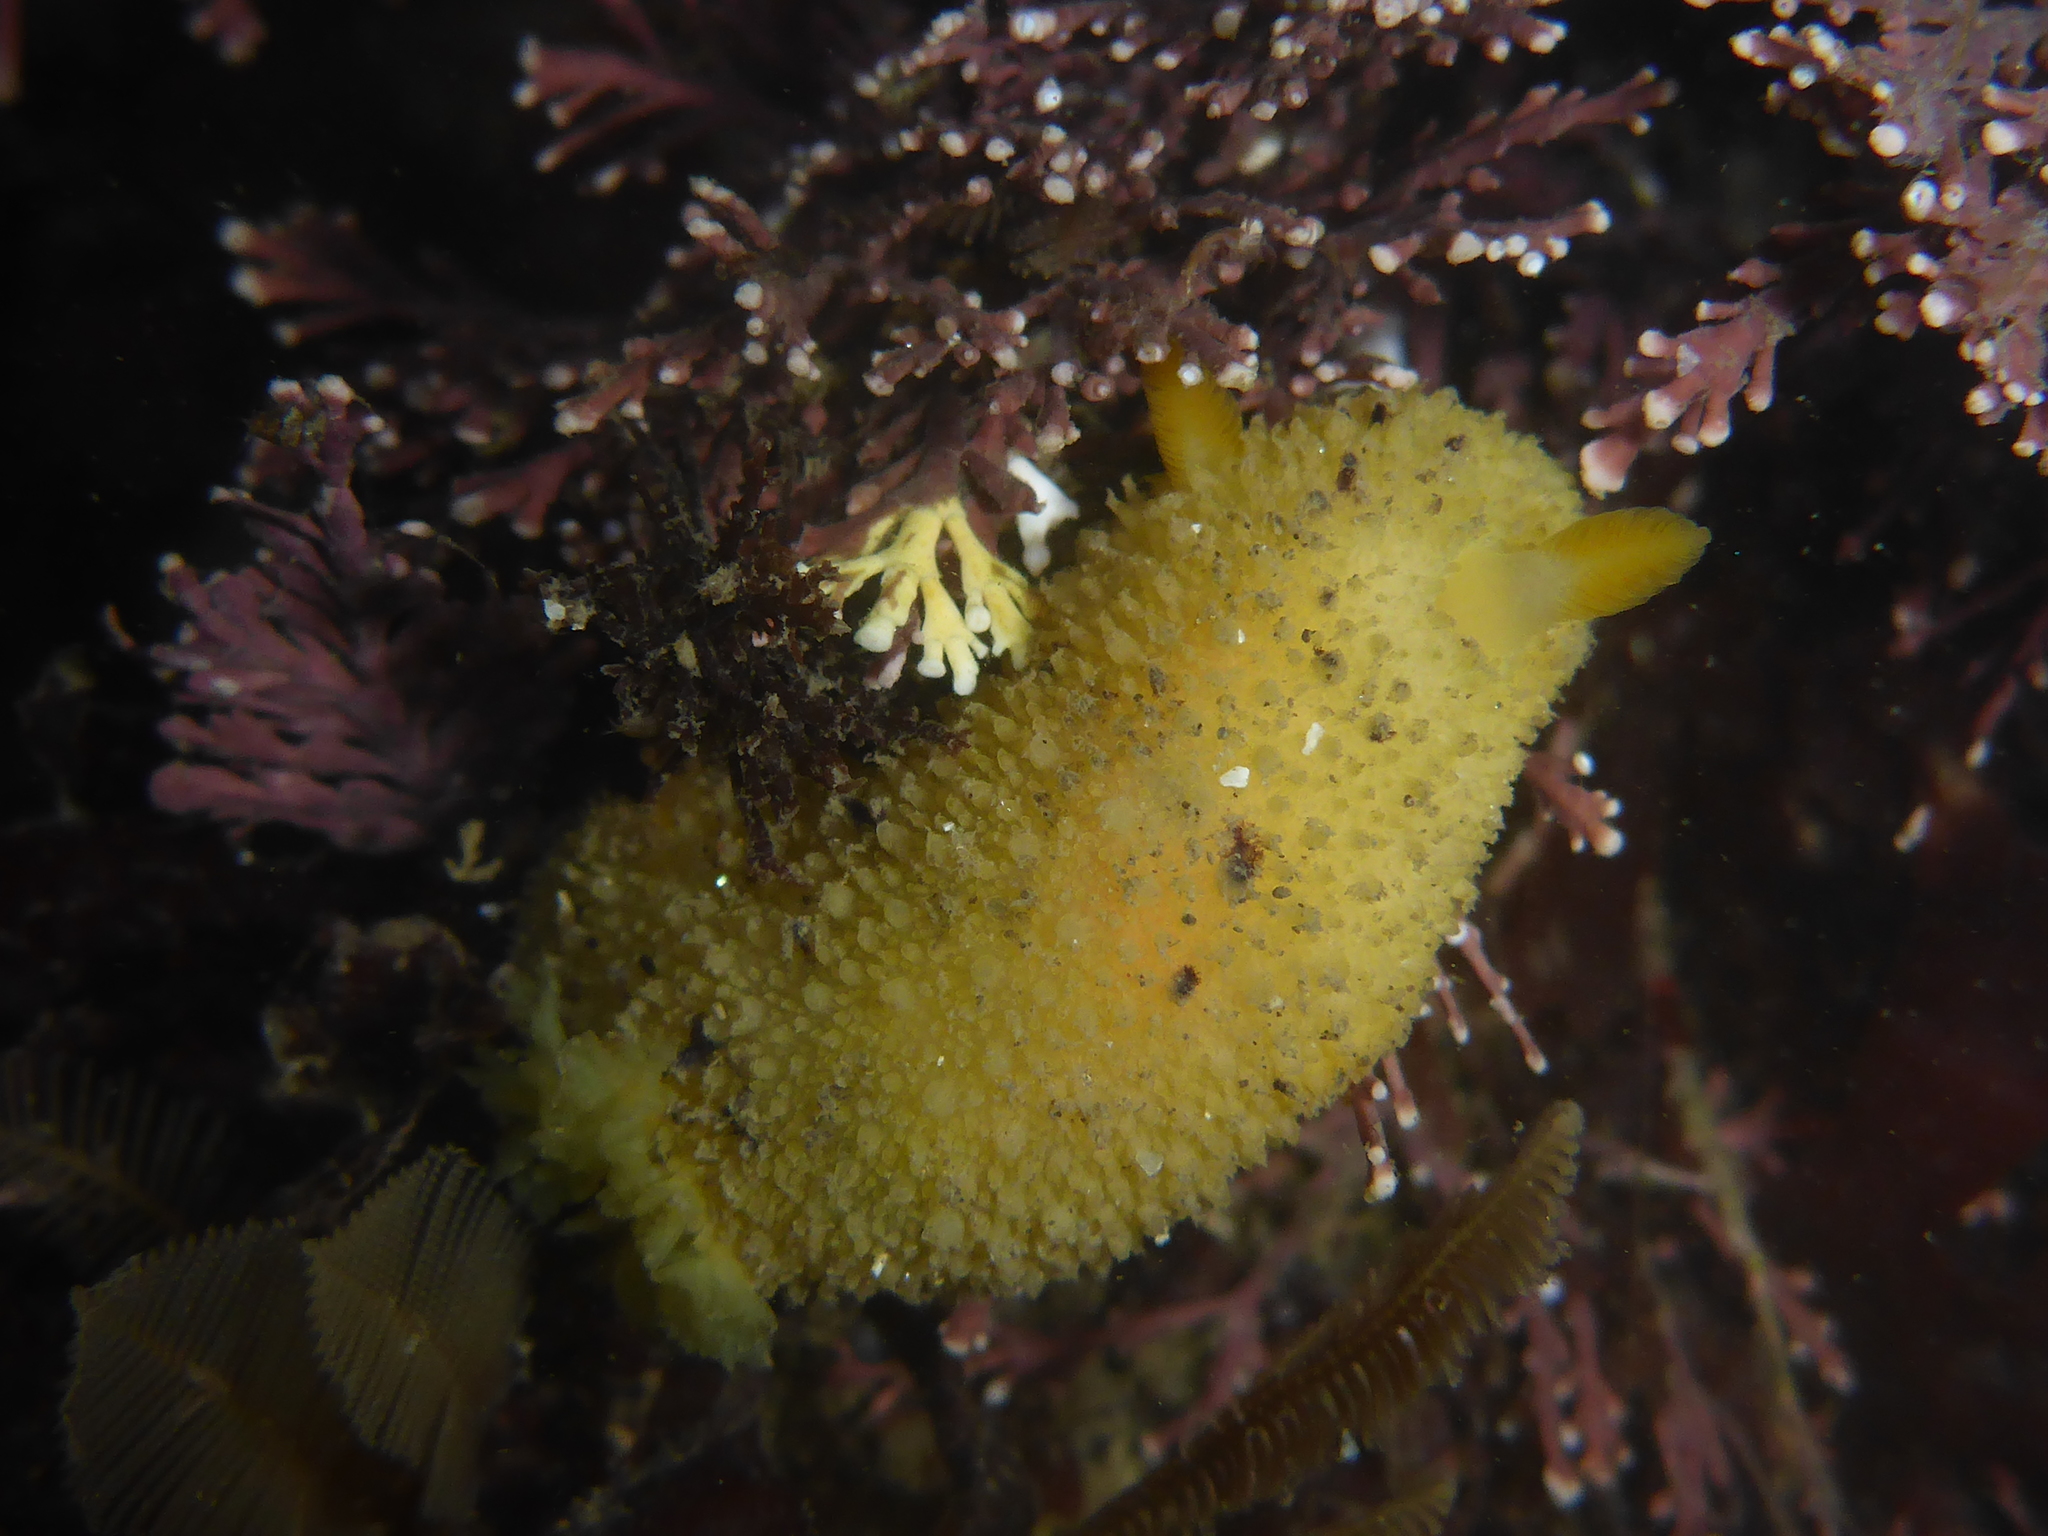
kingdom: Animalia
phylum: Mollusca
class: Gastropoda
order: Nudibranchia
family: Dorididae
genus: Doris
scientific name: Doris montereyensis
